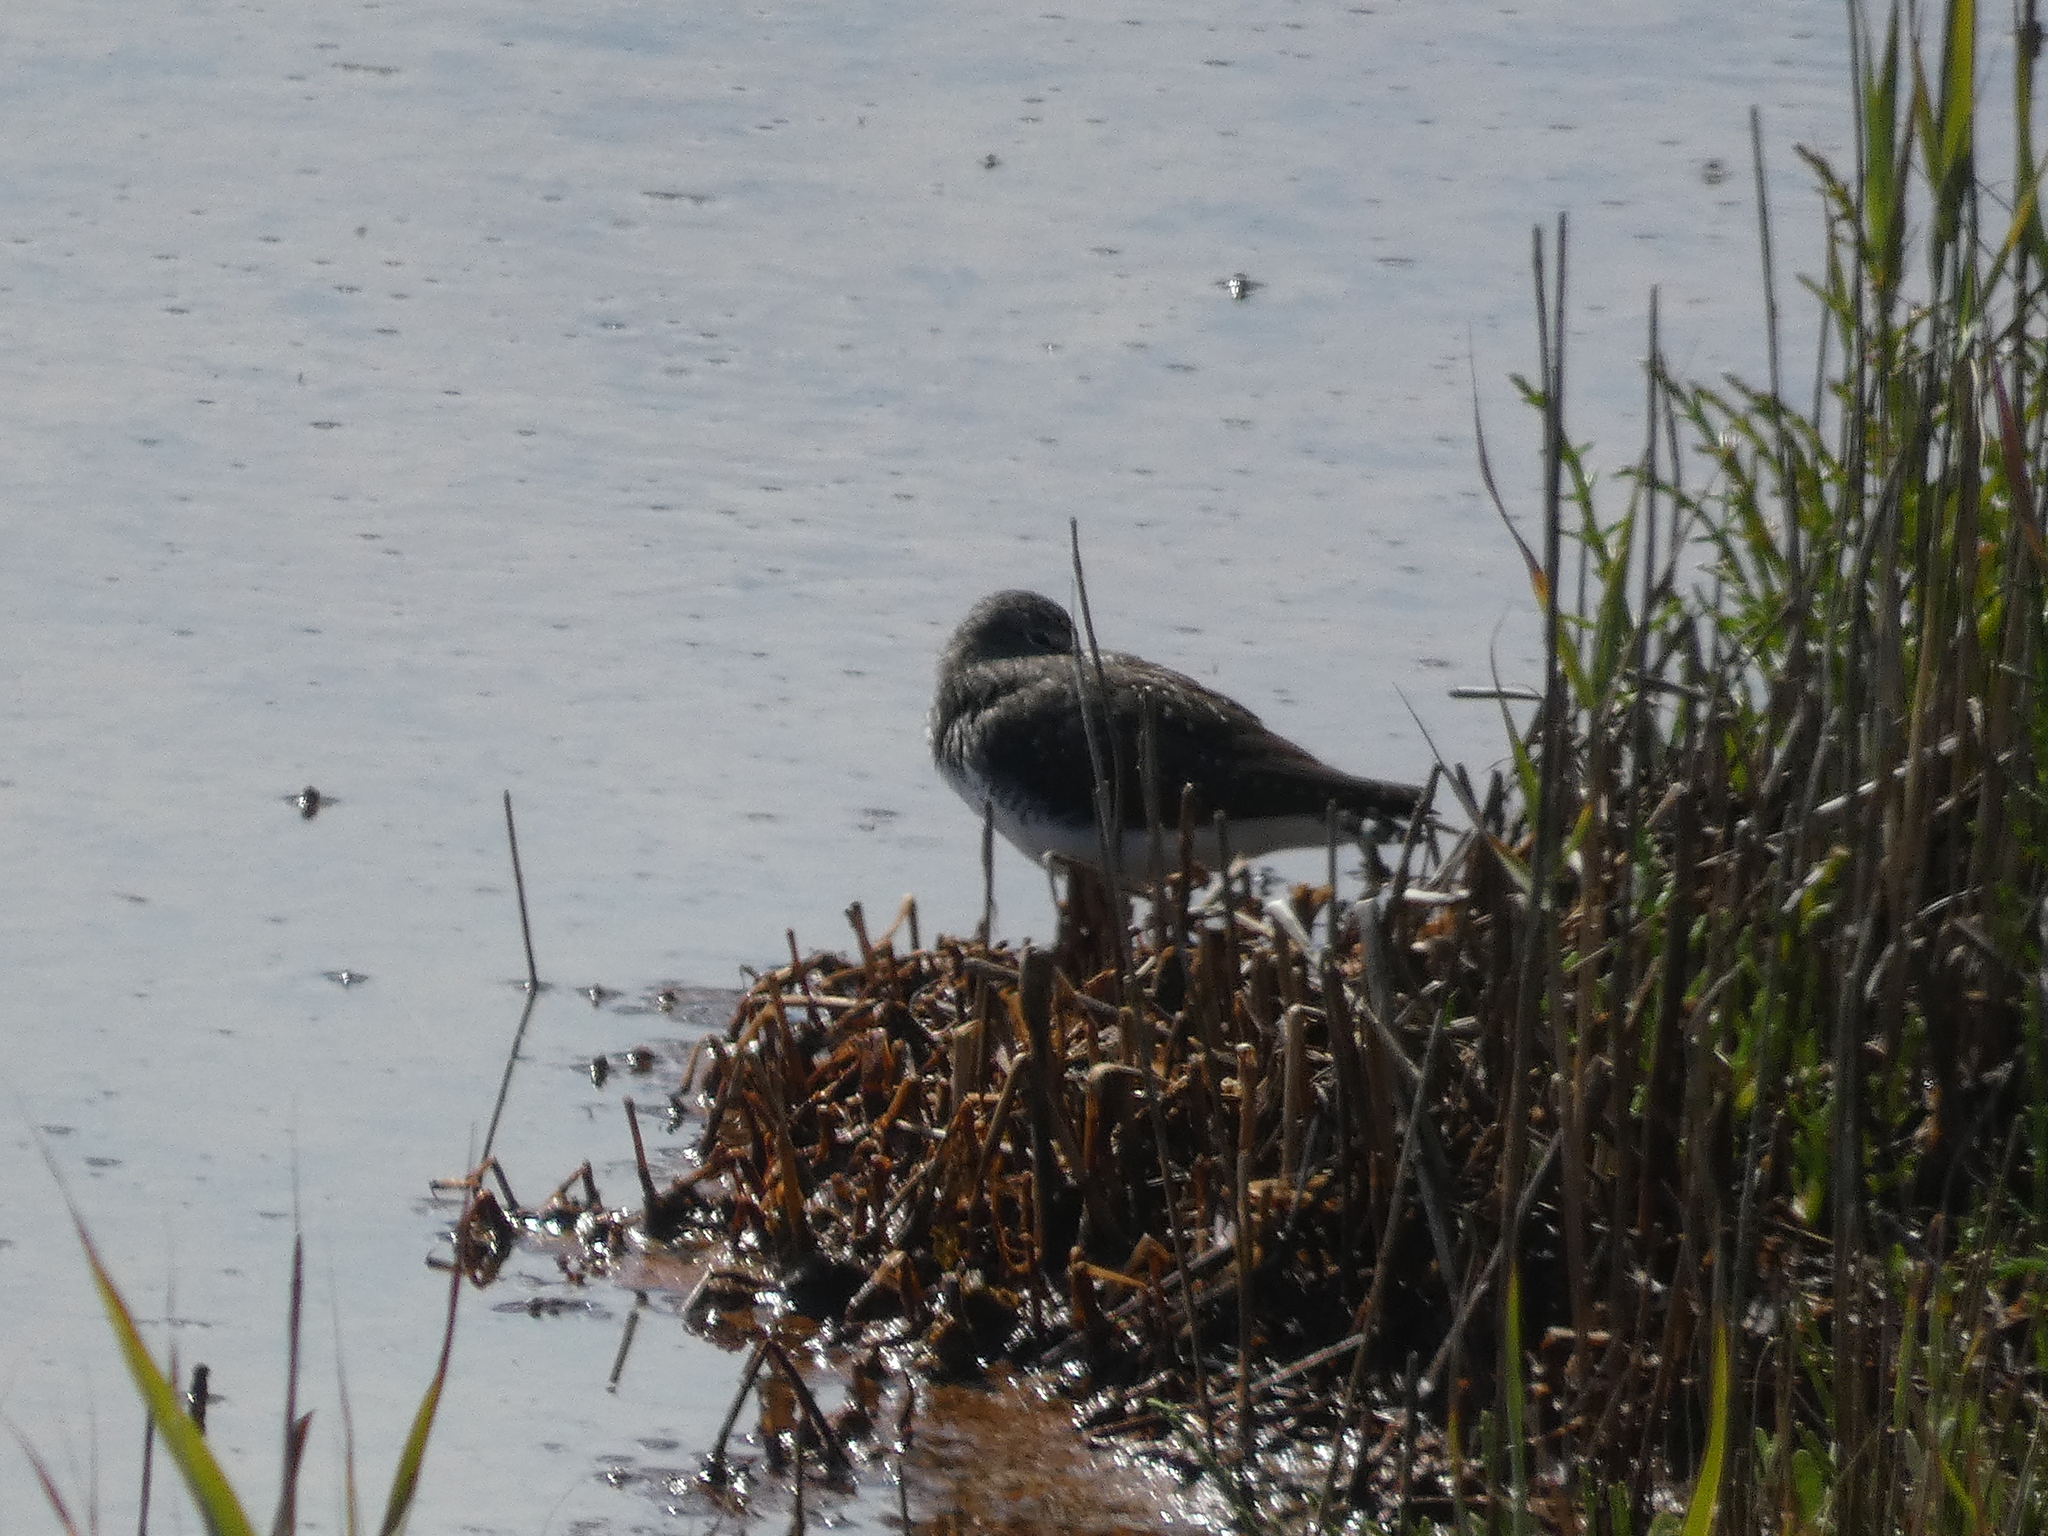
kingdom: Animalia
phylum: Chordata
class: Aves
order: Charadriiformes
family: Scolopacidae
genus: Tringa
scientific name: Tringa ochropus
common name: Green sandpiper
